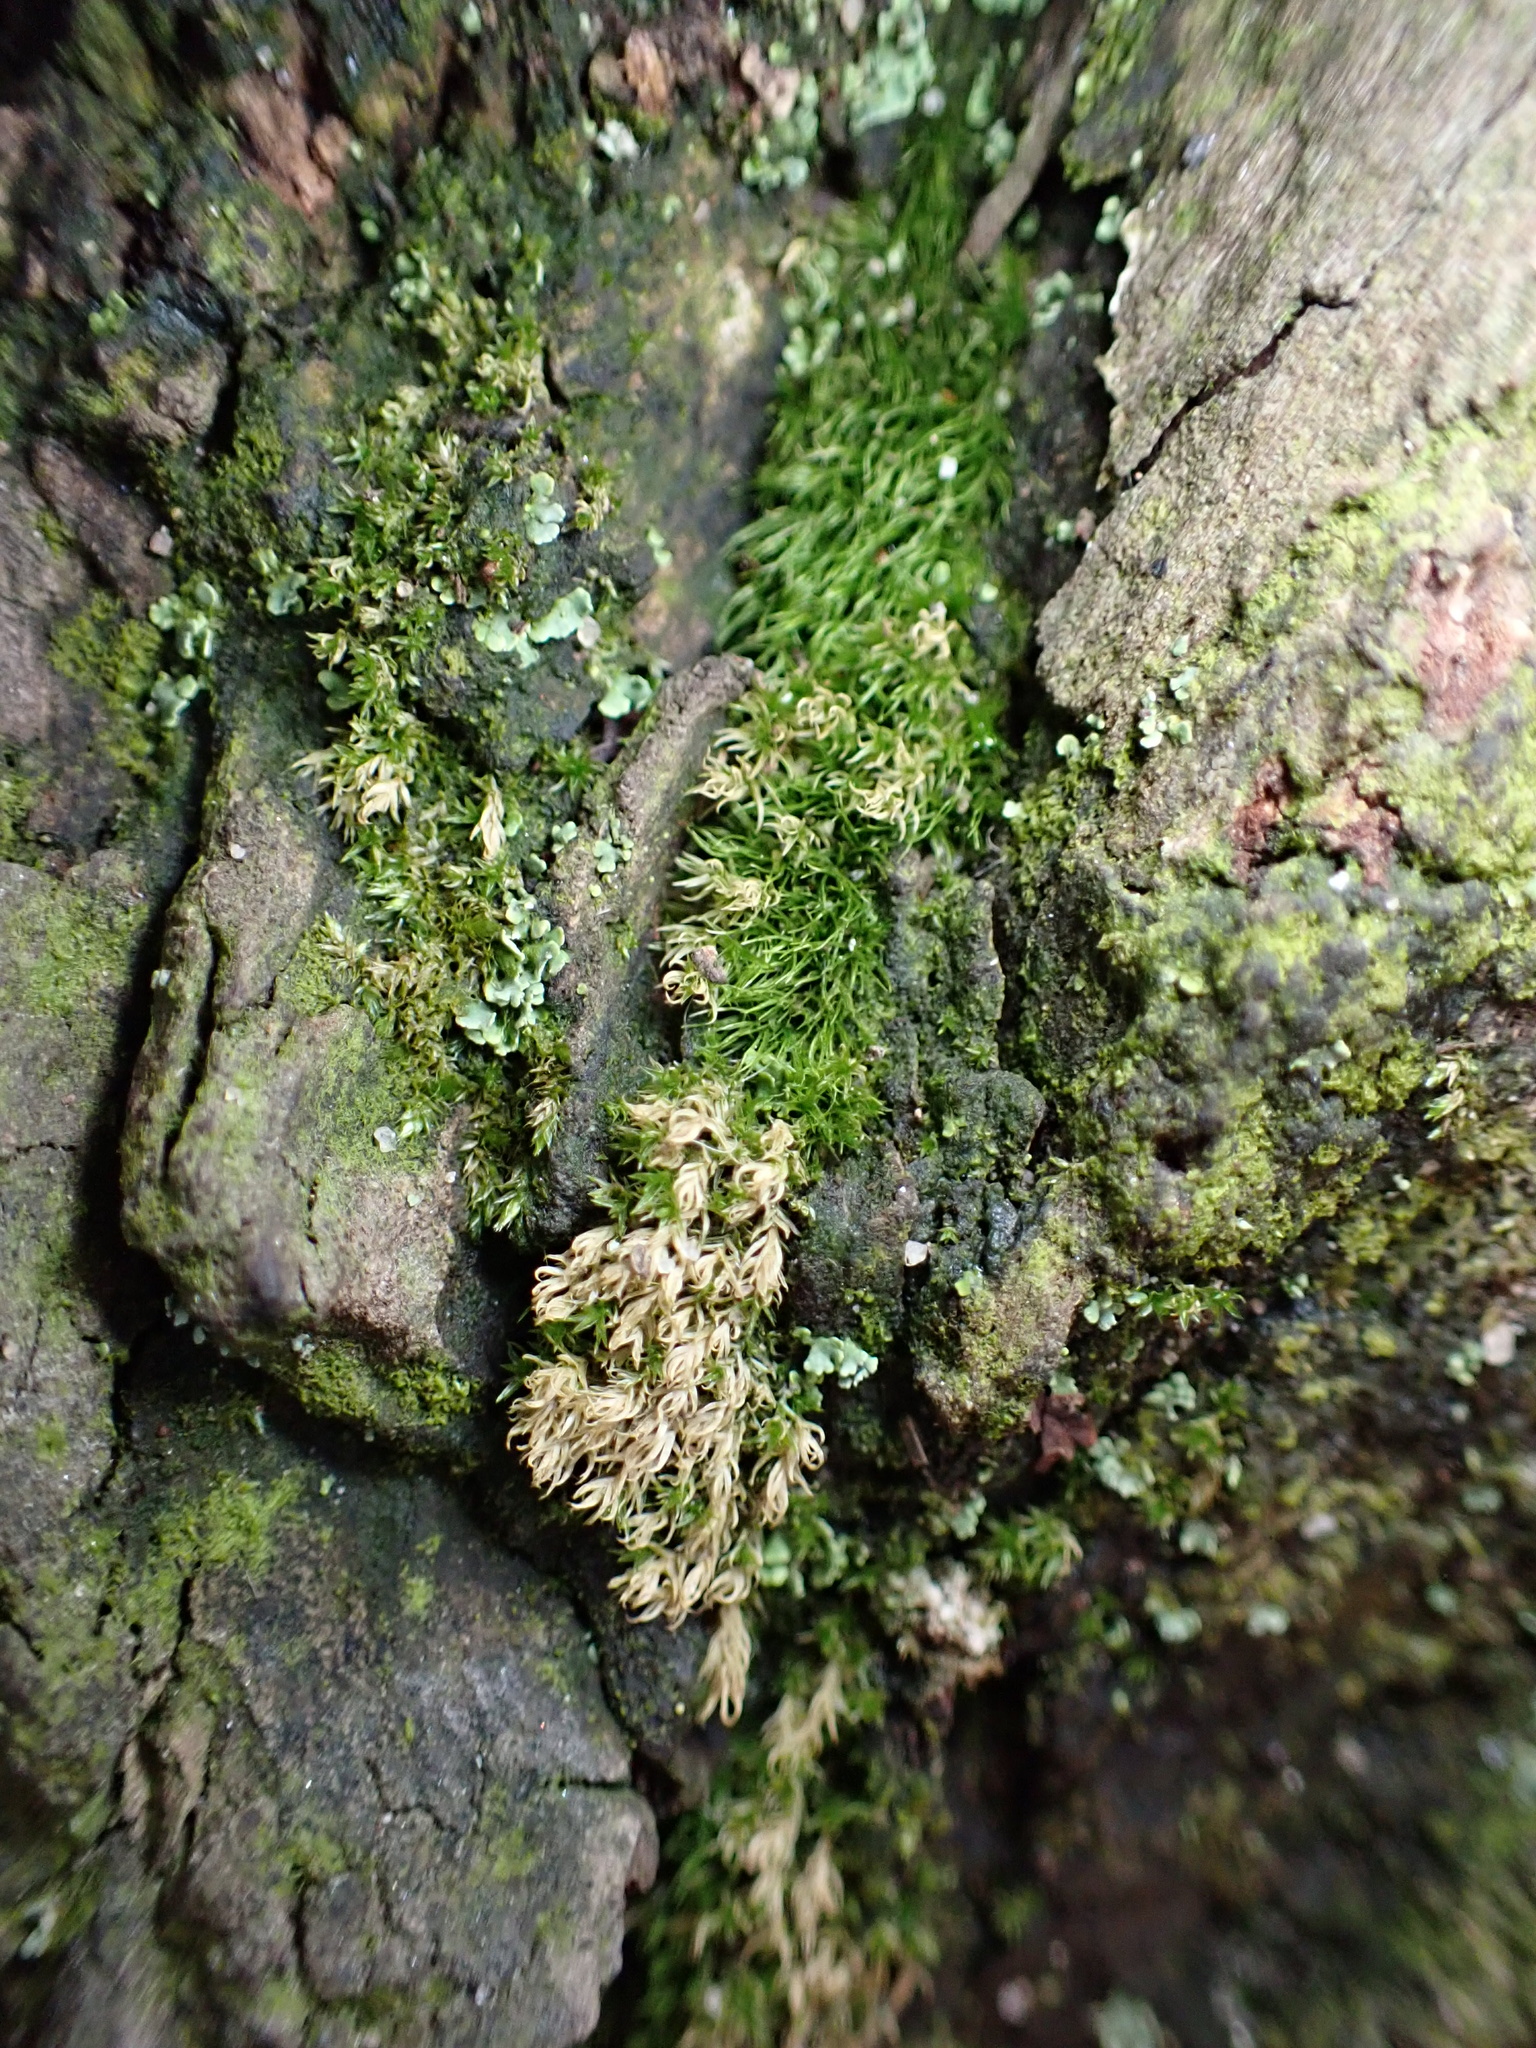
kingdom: Plantae
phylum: Bryophyta
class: Bryopsida
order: Dicranales
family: Dicranaceae
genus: Dicranum
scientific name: Dicranum scoparium
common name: Broom fork-moss
